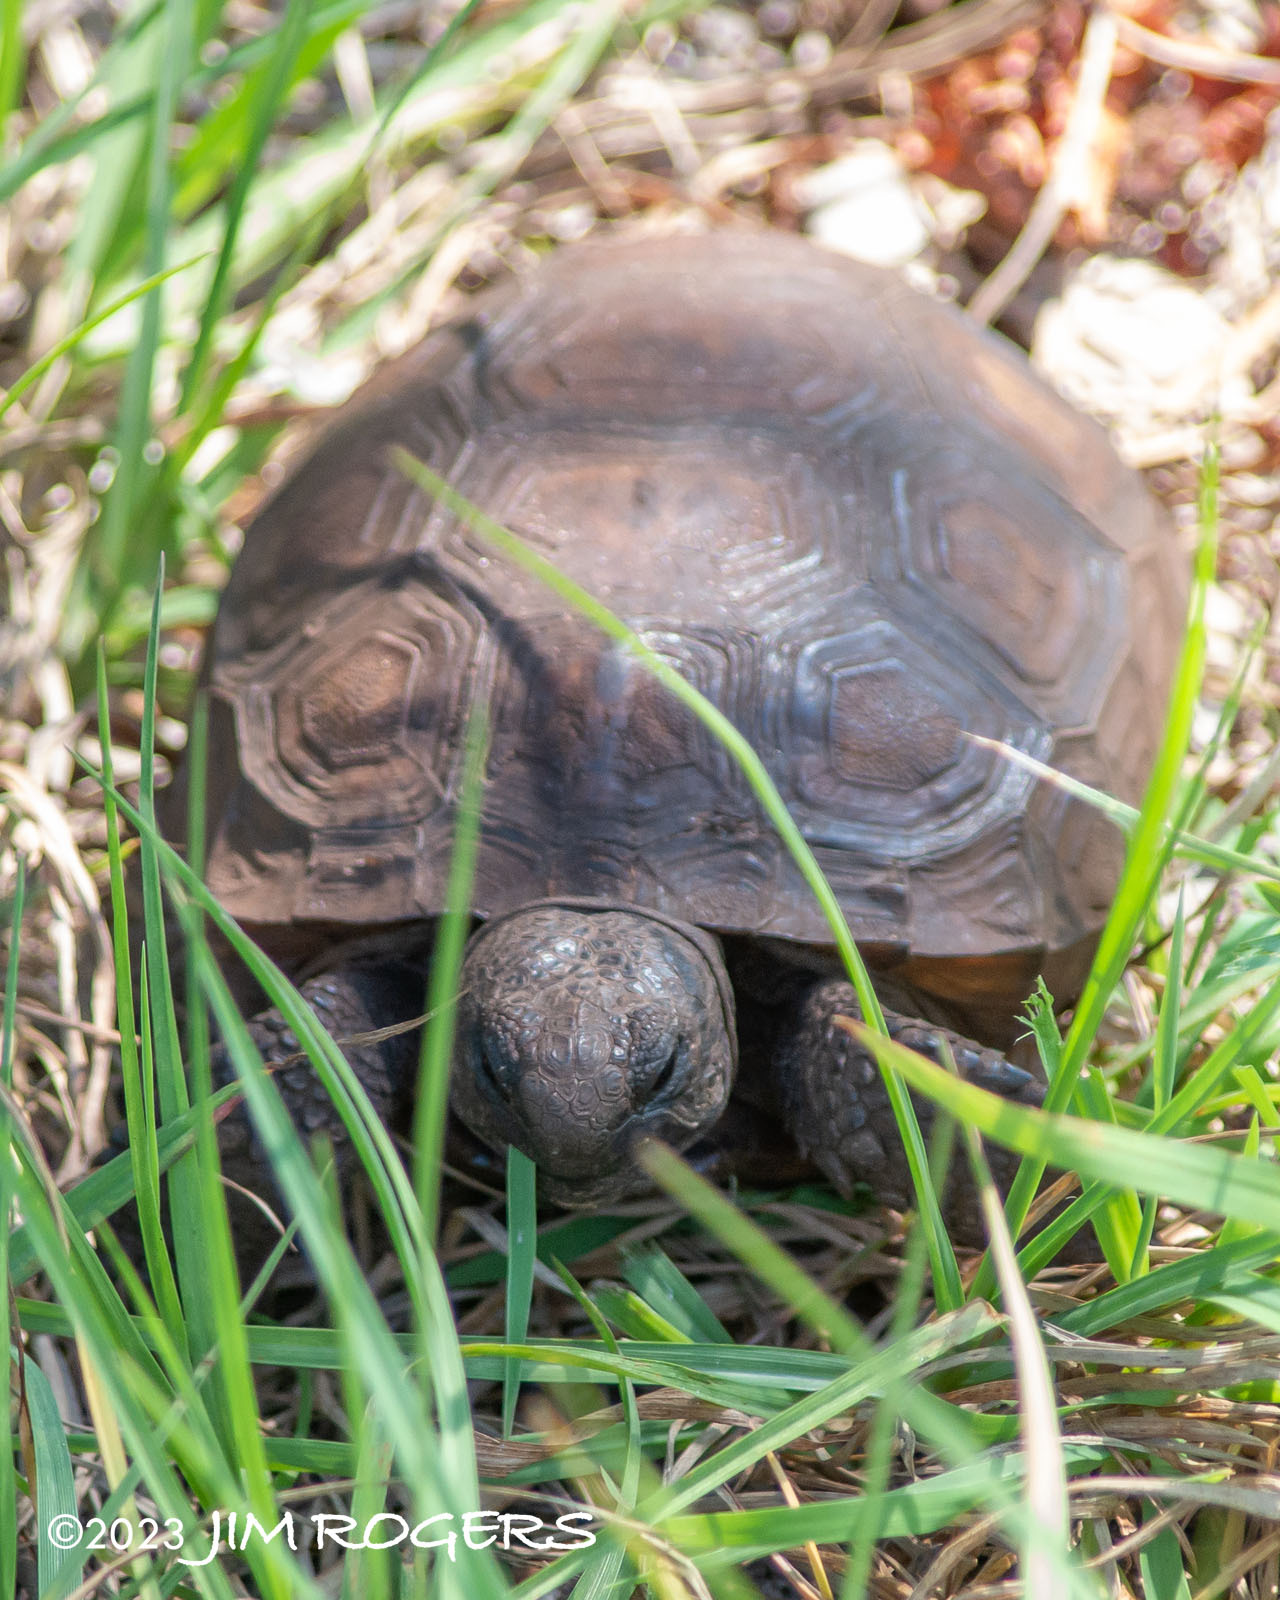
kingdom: Animalia
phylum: Chordata
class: Testudines
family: Testudinidae
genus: Gopherus
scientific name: Gopherus polyphemus
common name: Florida gopher tortoise
